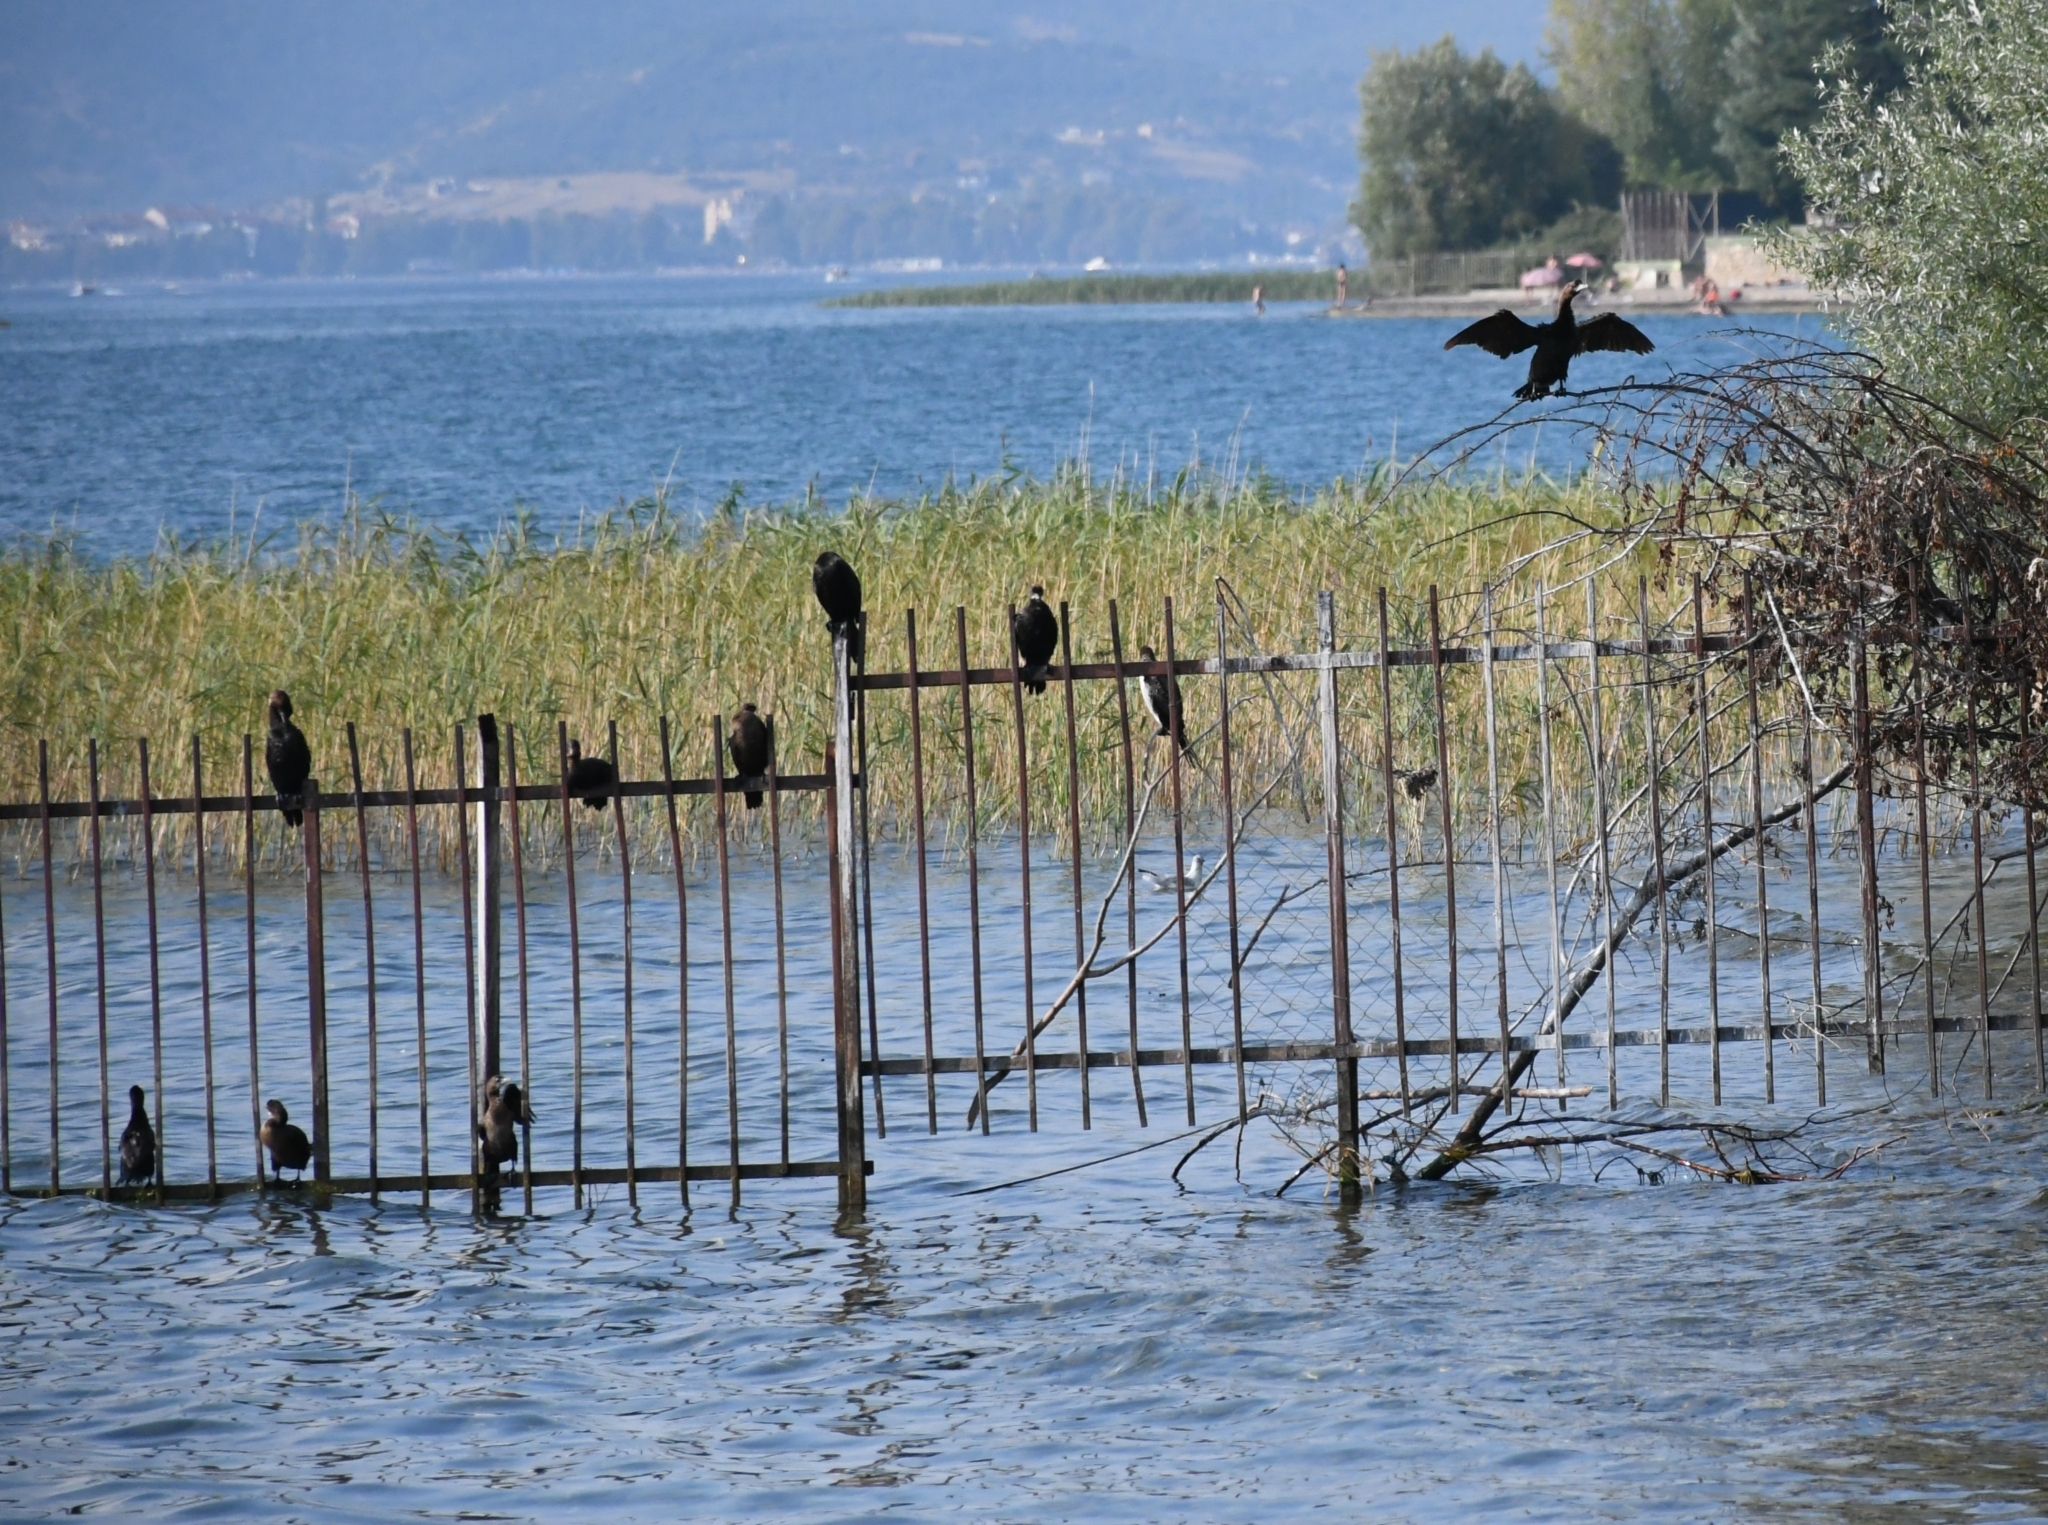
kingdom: Animalia
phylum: Chordata
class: Aves
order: Suliformes
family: Phalacrocoracidae
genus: Microcarbo
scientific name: Microcarbo pygmaeus
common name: Pygmy cormorant
